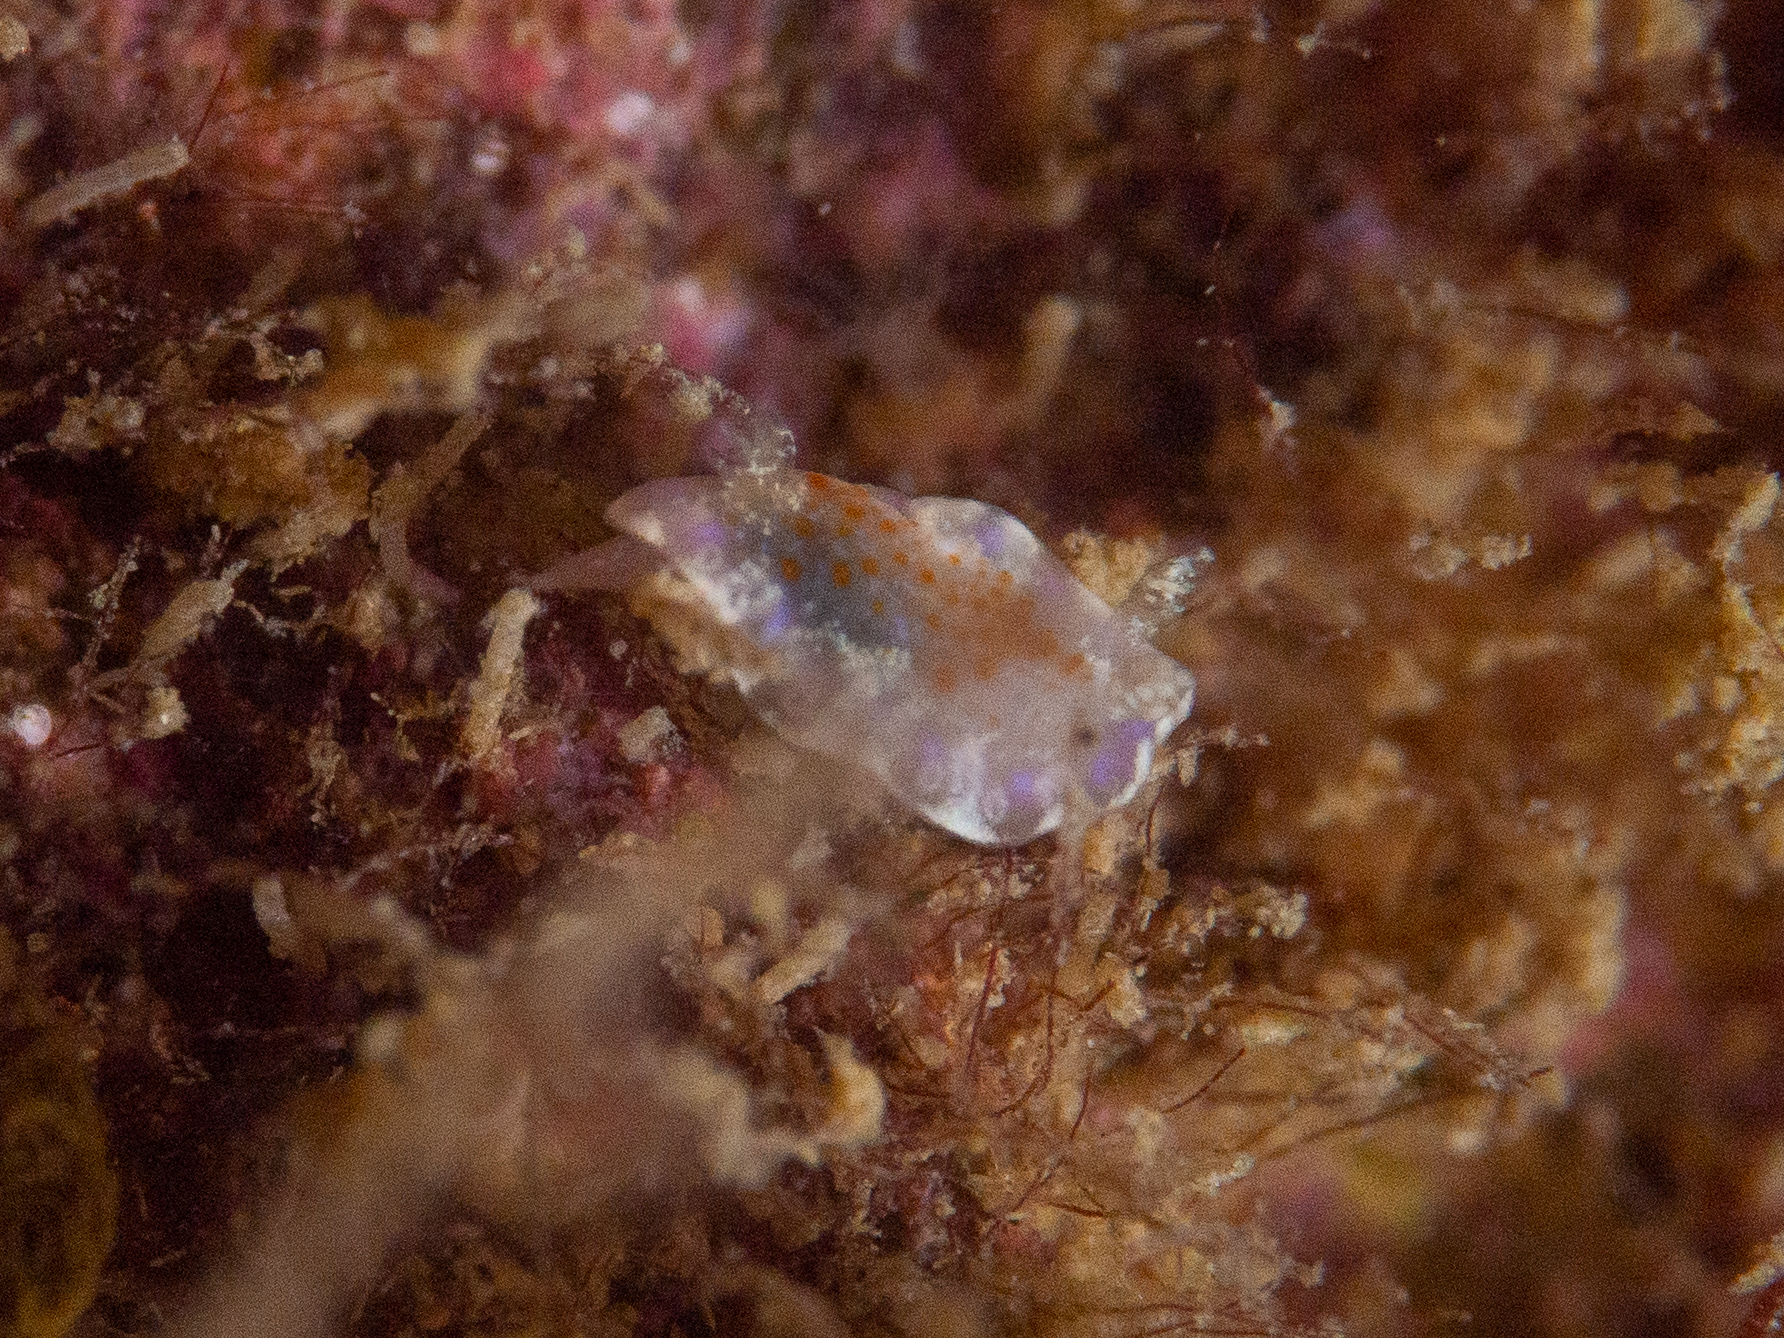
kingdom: Animalia
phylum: Mollusca
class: Gastropoda
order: Nudibranchia
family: Chromodorididae
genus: Chromodoris
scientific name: Chromodoris alternata
